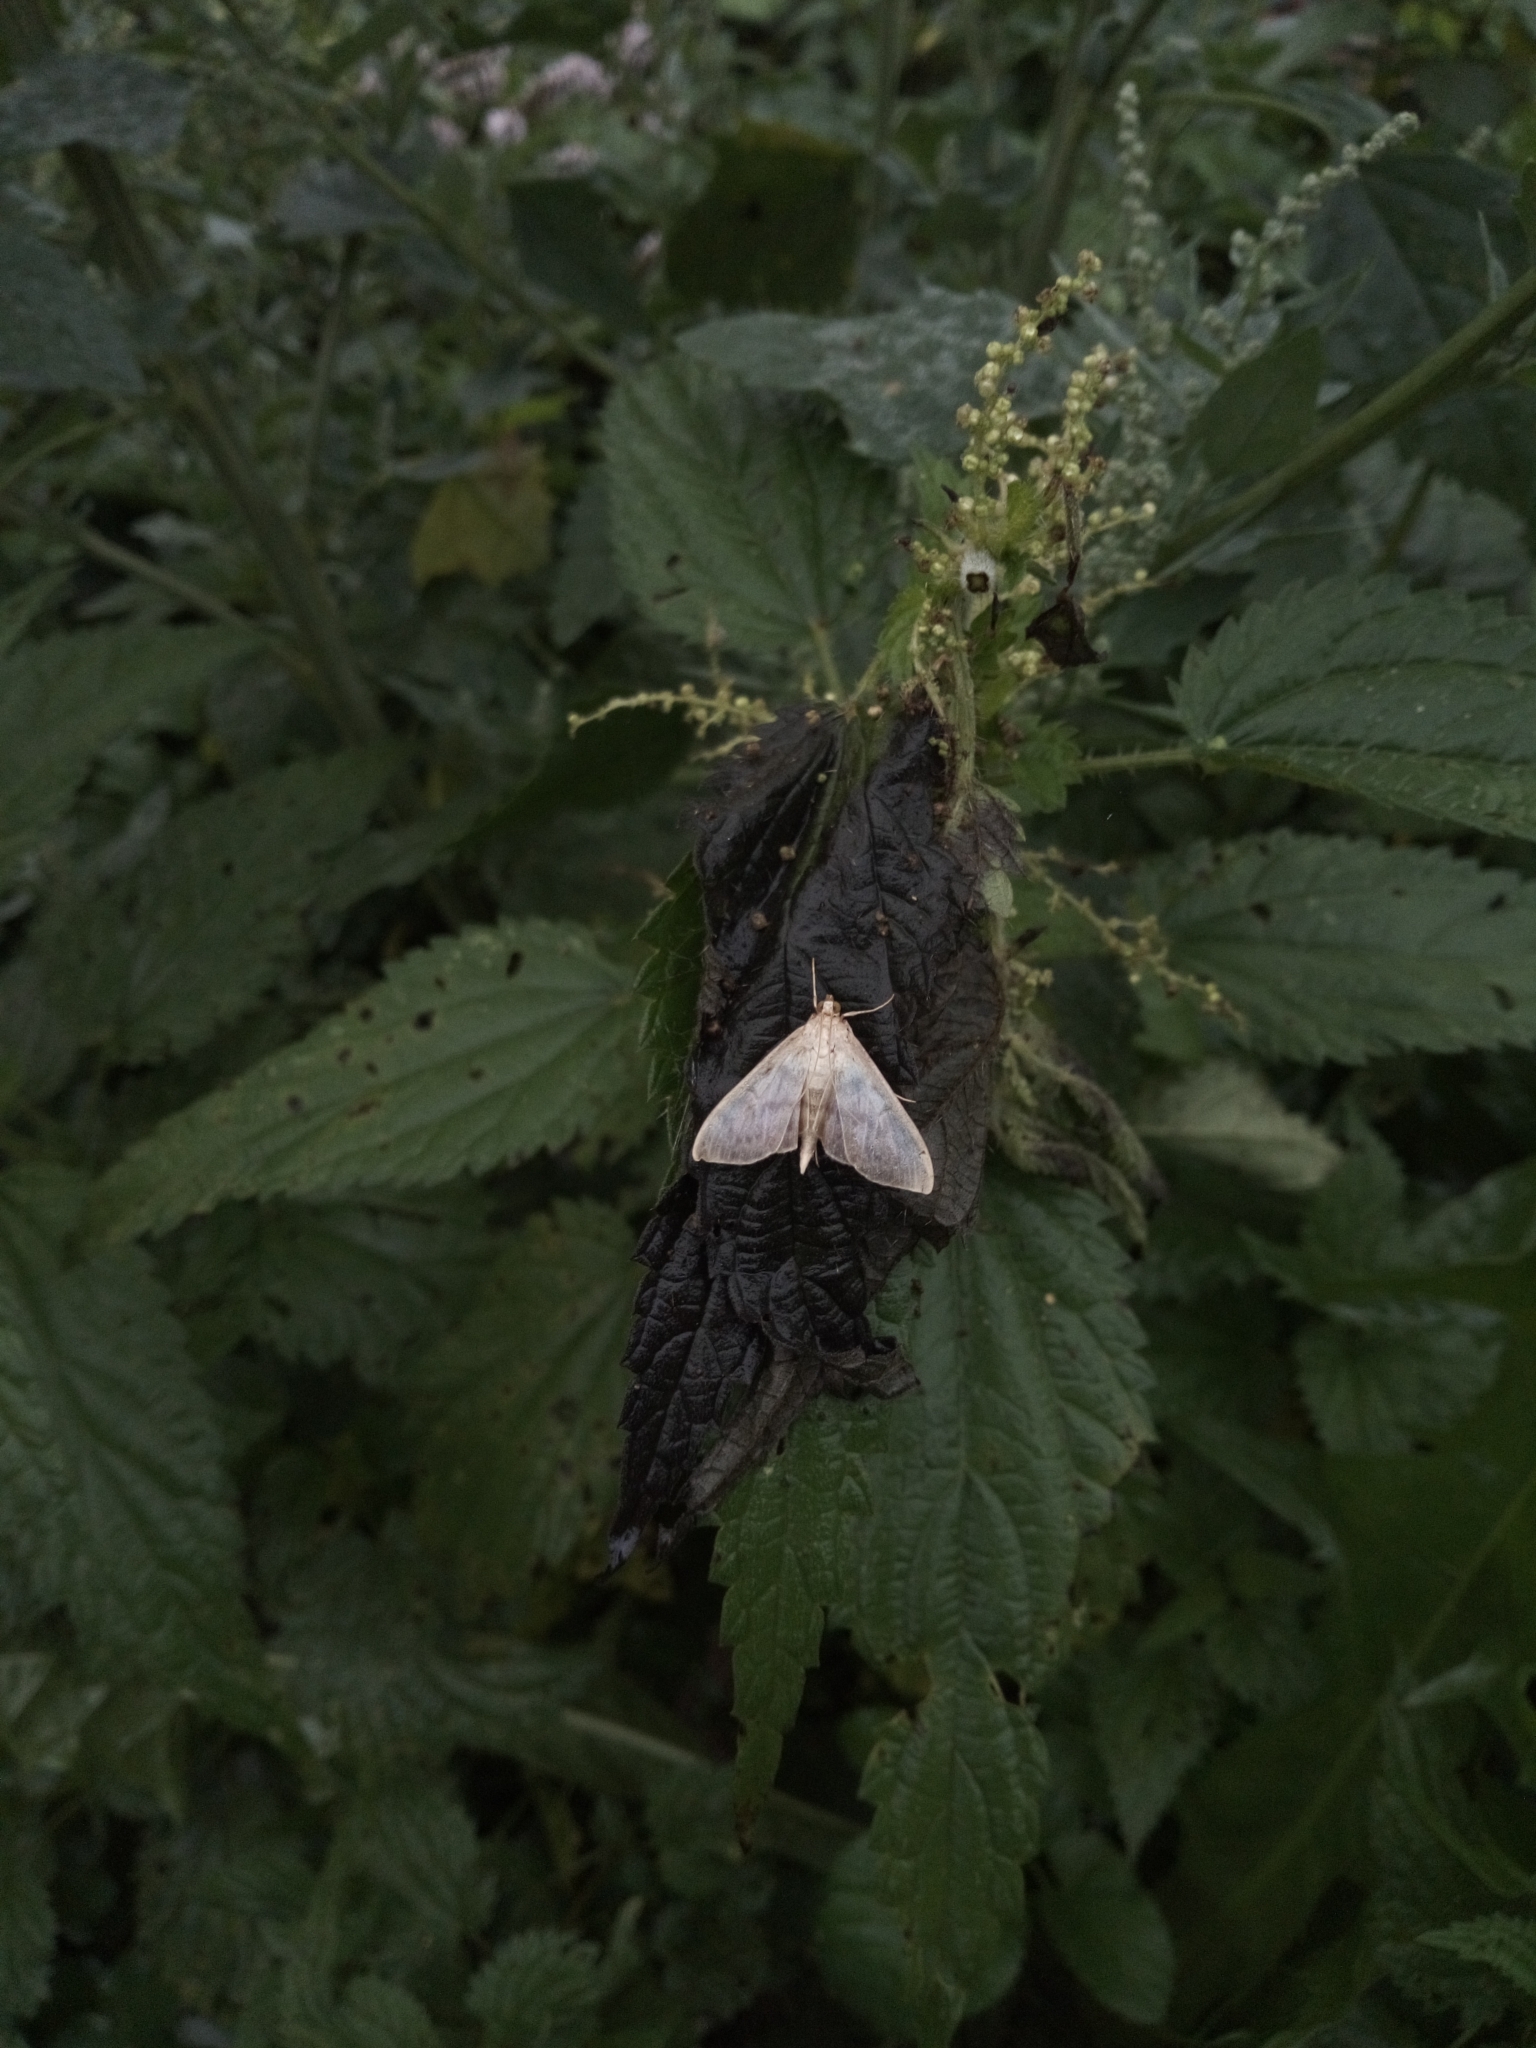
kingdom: Animalia
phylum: Arthropoda
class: Insecta
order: Lepidoptera
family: Crambidae
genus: Patania
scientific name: Patania ruralis
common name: Mother of pearl
